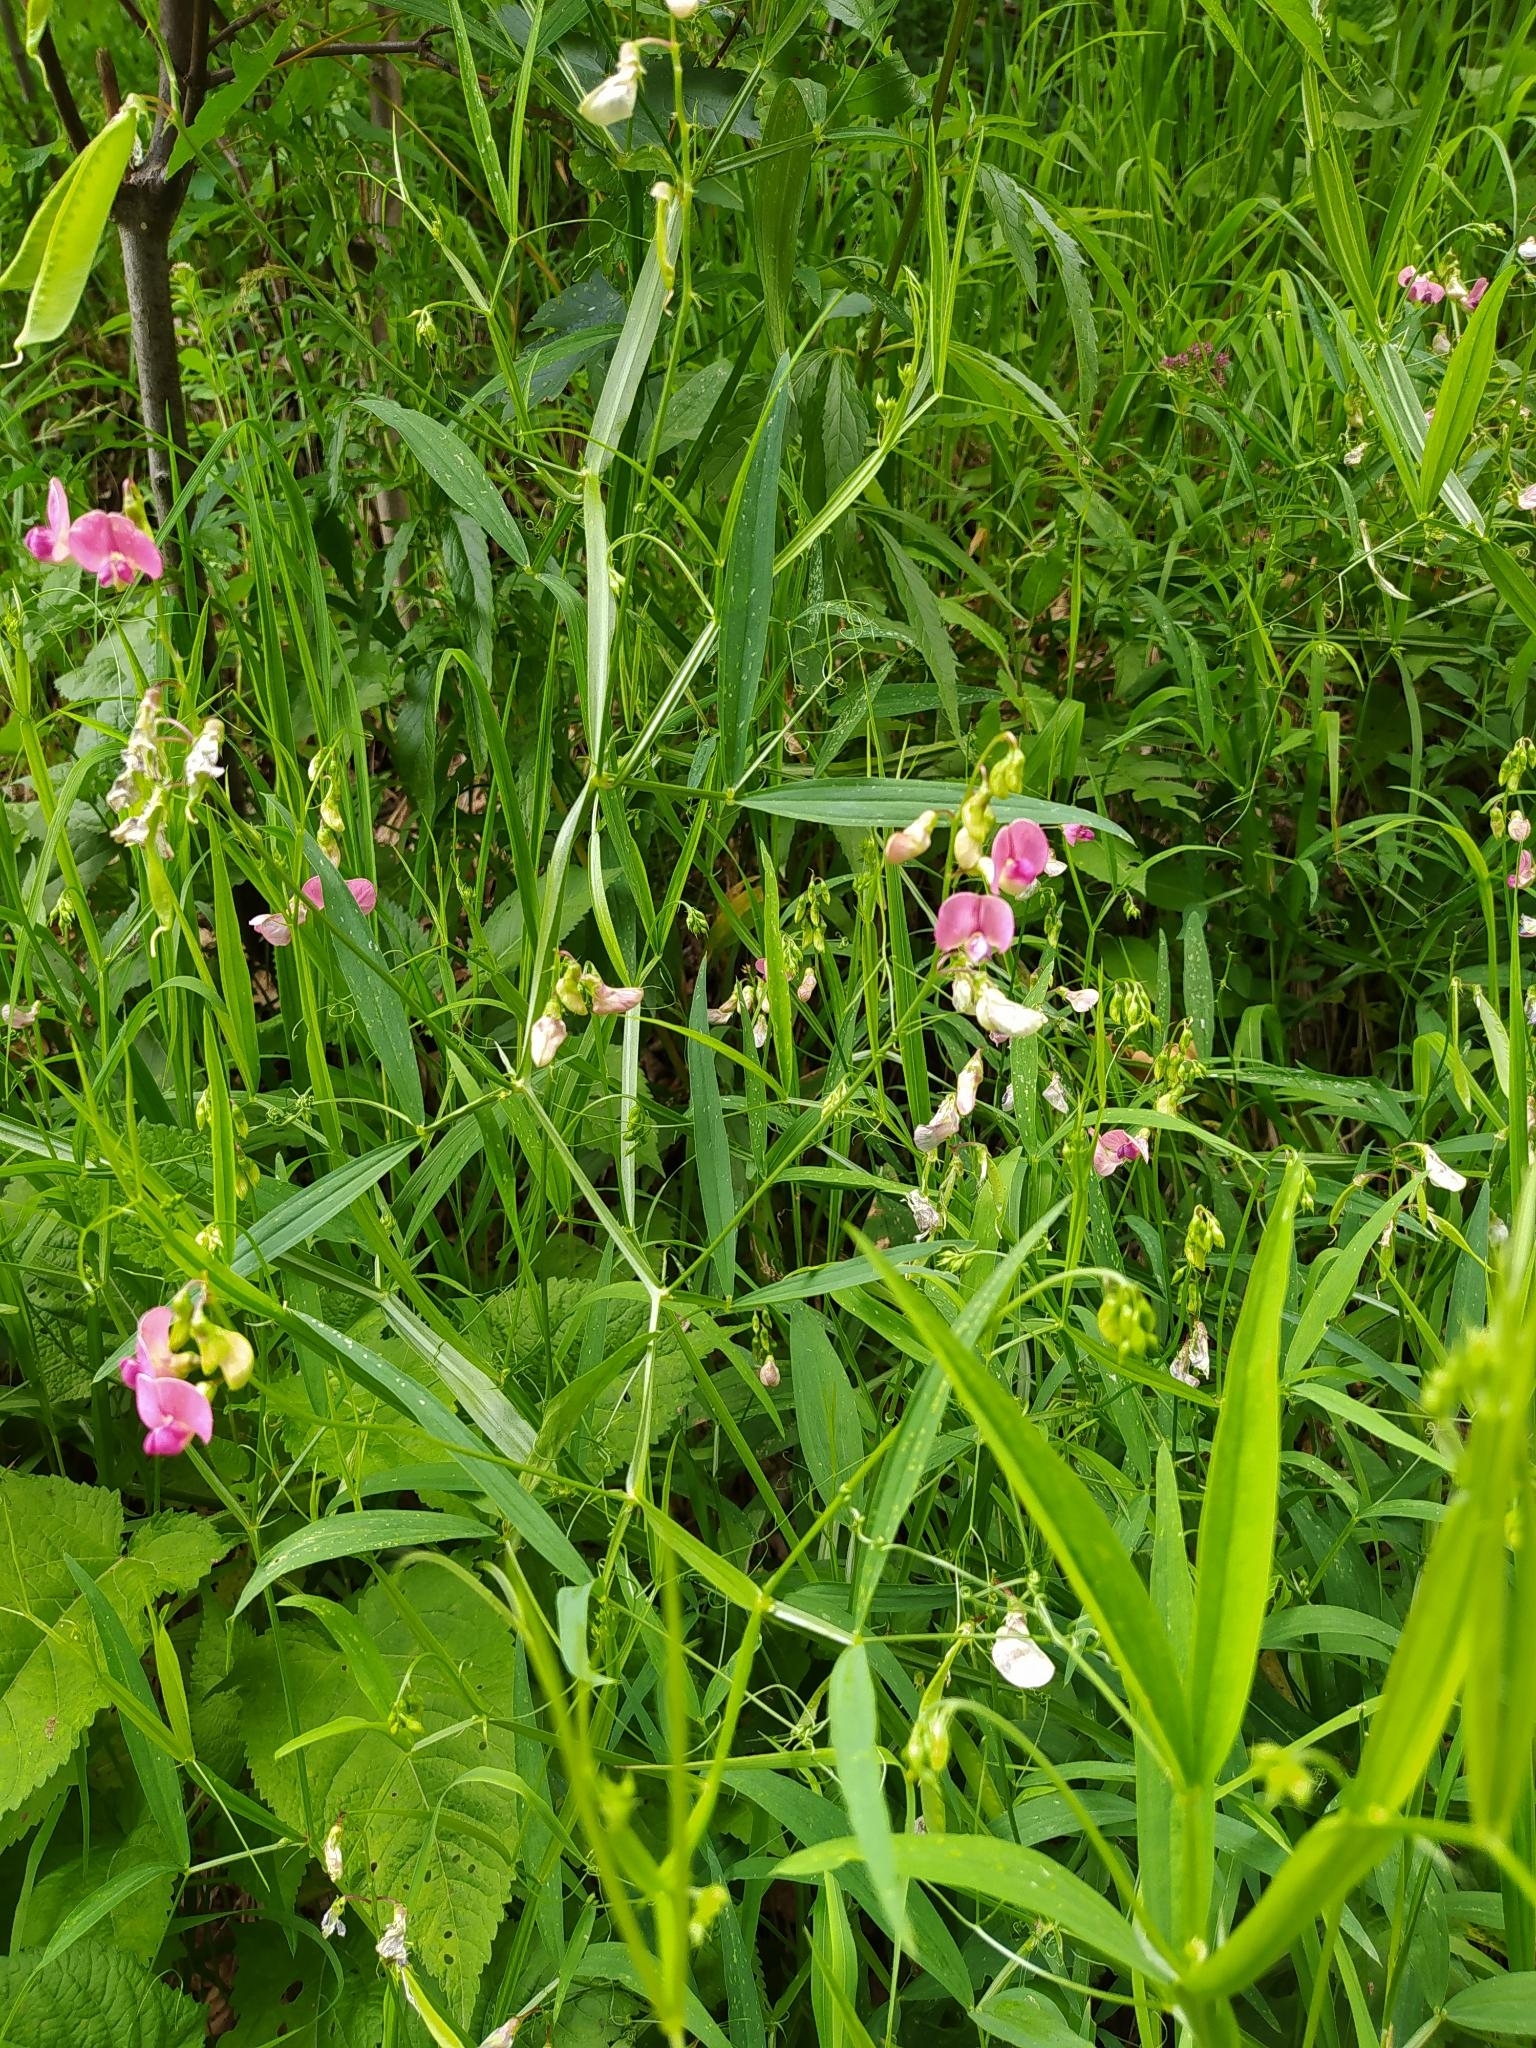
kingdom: Plantae
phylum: Tracheophyta
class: Magnoliopsida
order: Fabales
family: Fabaceae
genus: Lathyrus
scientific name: Lathyrus sylvestris
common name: Flat pea
